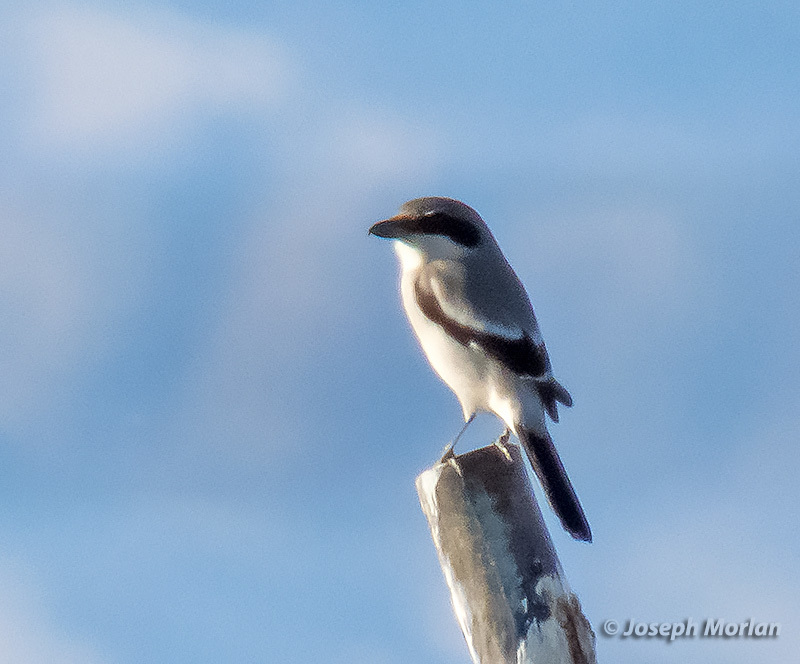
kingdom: Animalia
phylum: Chordata
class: Aves
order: Passeriformes
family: Laniidae
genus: Lanius
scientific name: Lanius ludovicianus
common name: Loggerhead shrike
